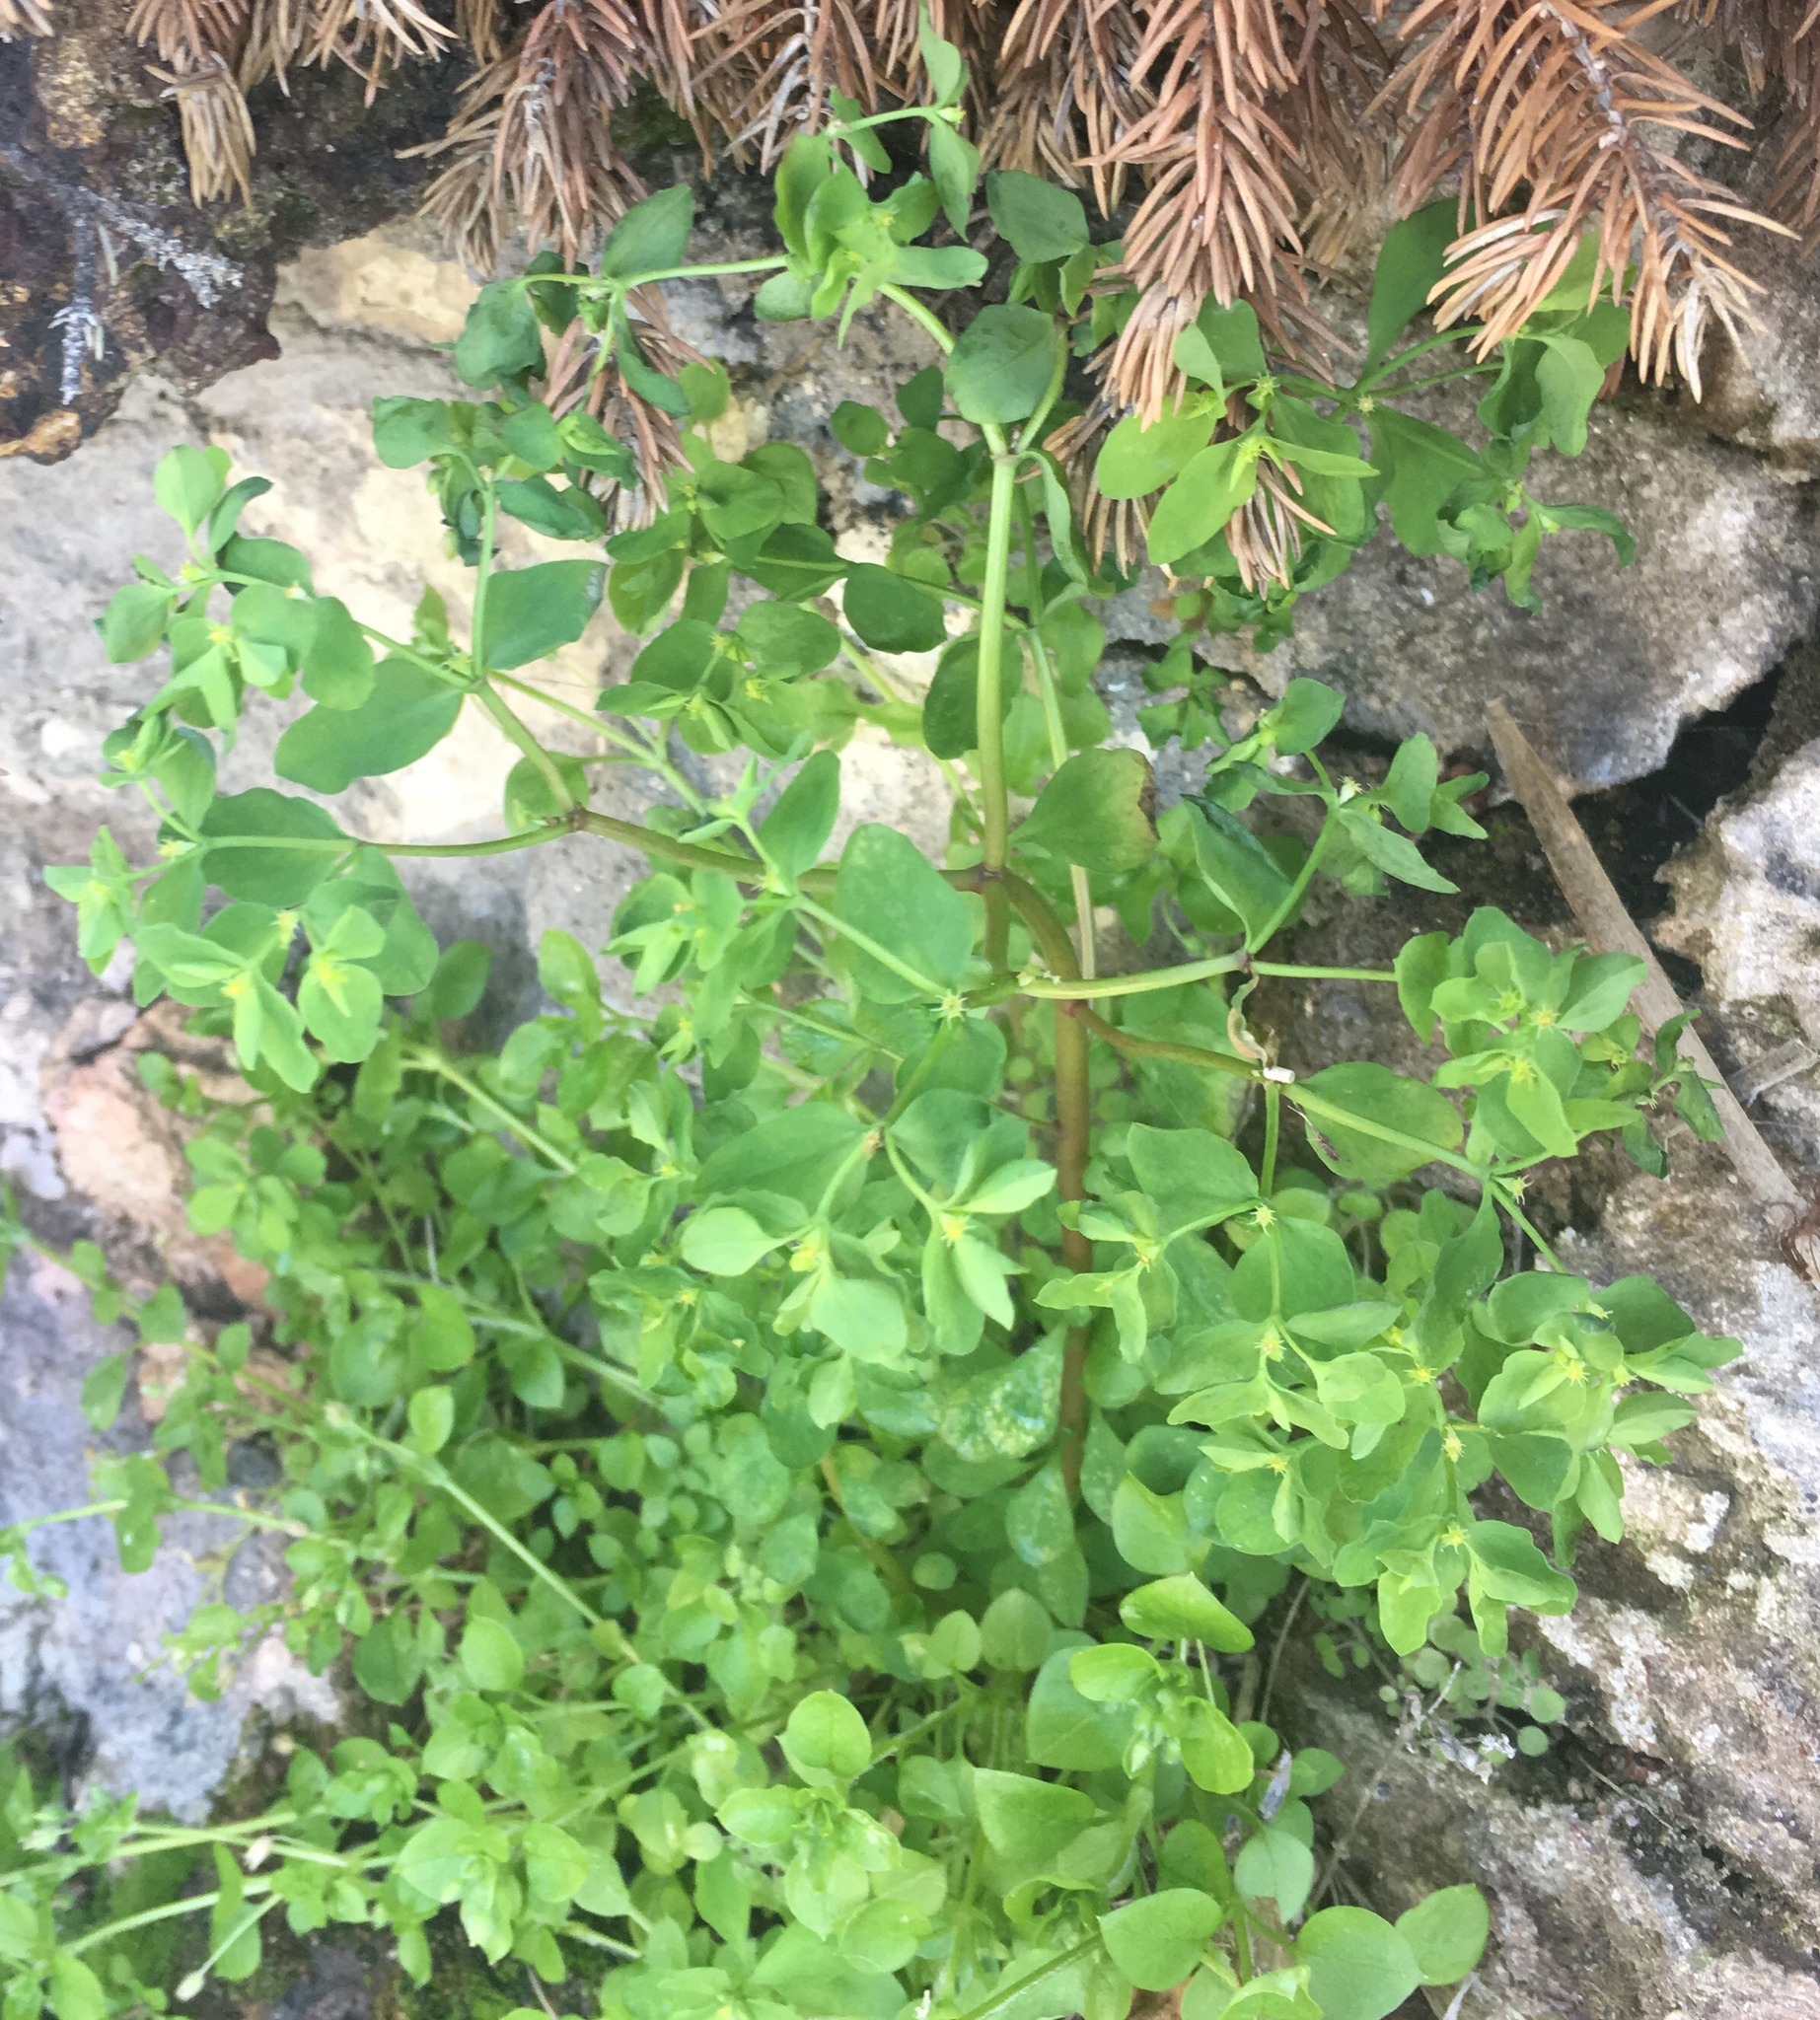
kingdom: Plantae
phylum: Tracheophyta
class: Magnoliopsida
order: Malpighiales
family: Euphorbiaceae
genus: Euphorbia
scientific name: Euphorbia peplus
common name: Petty spurge
